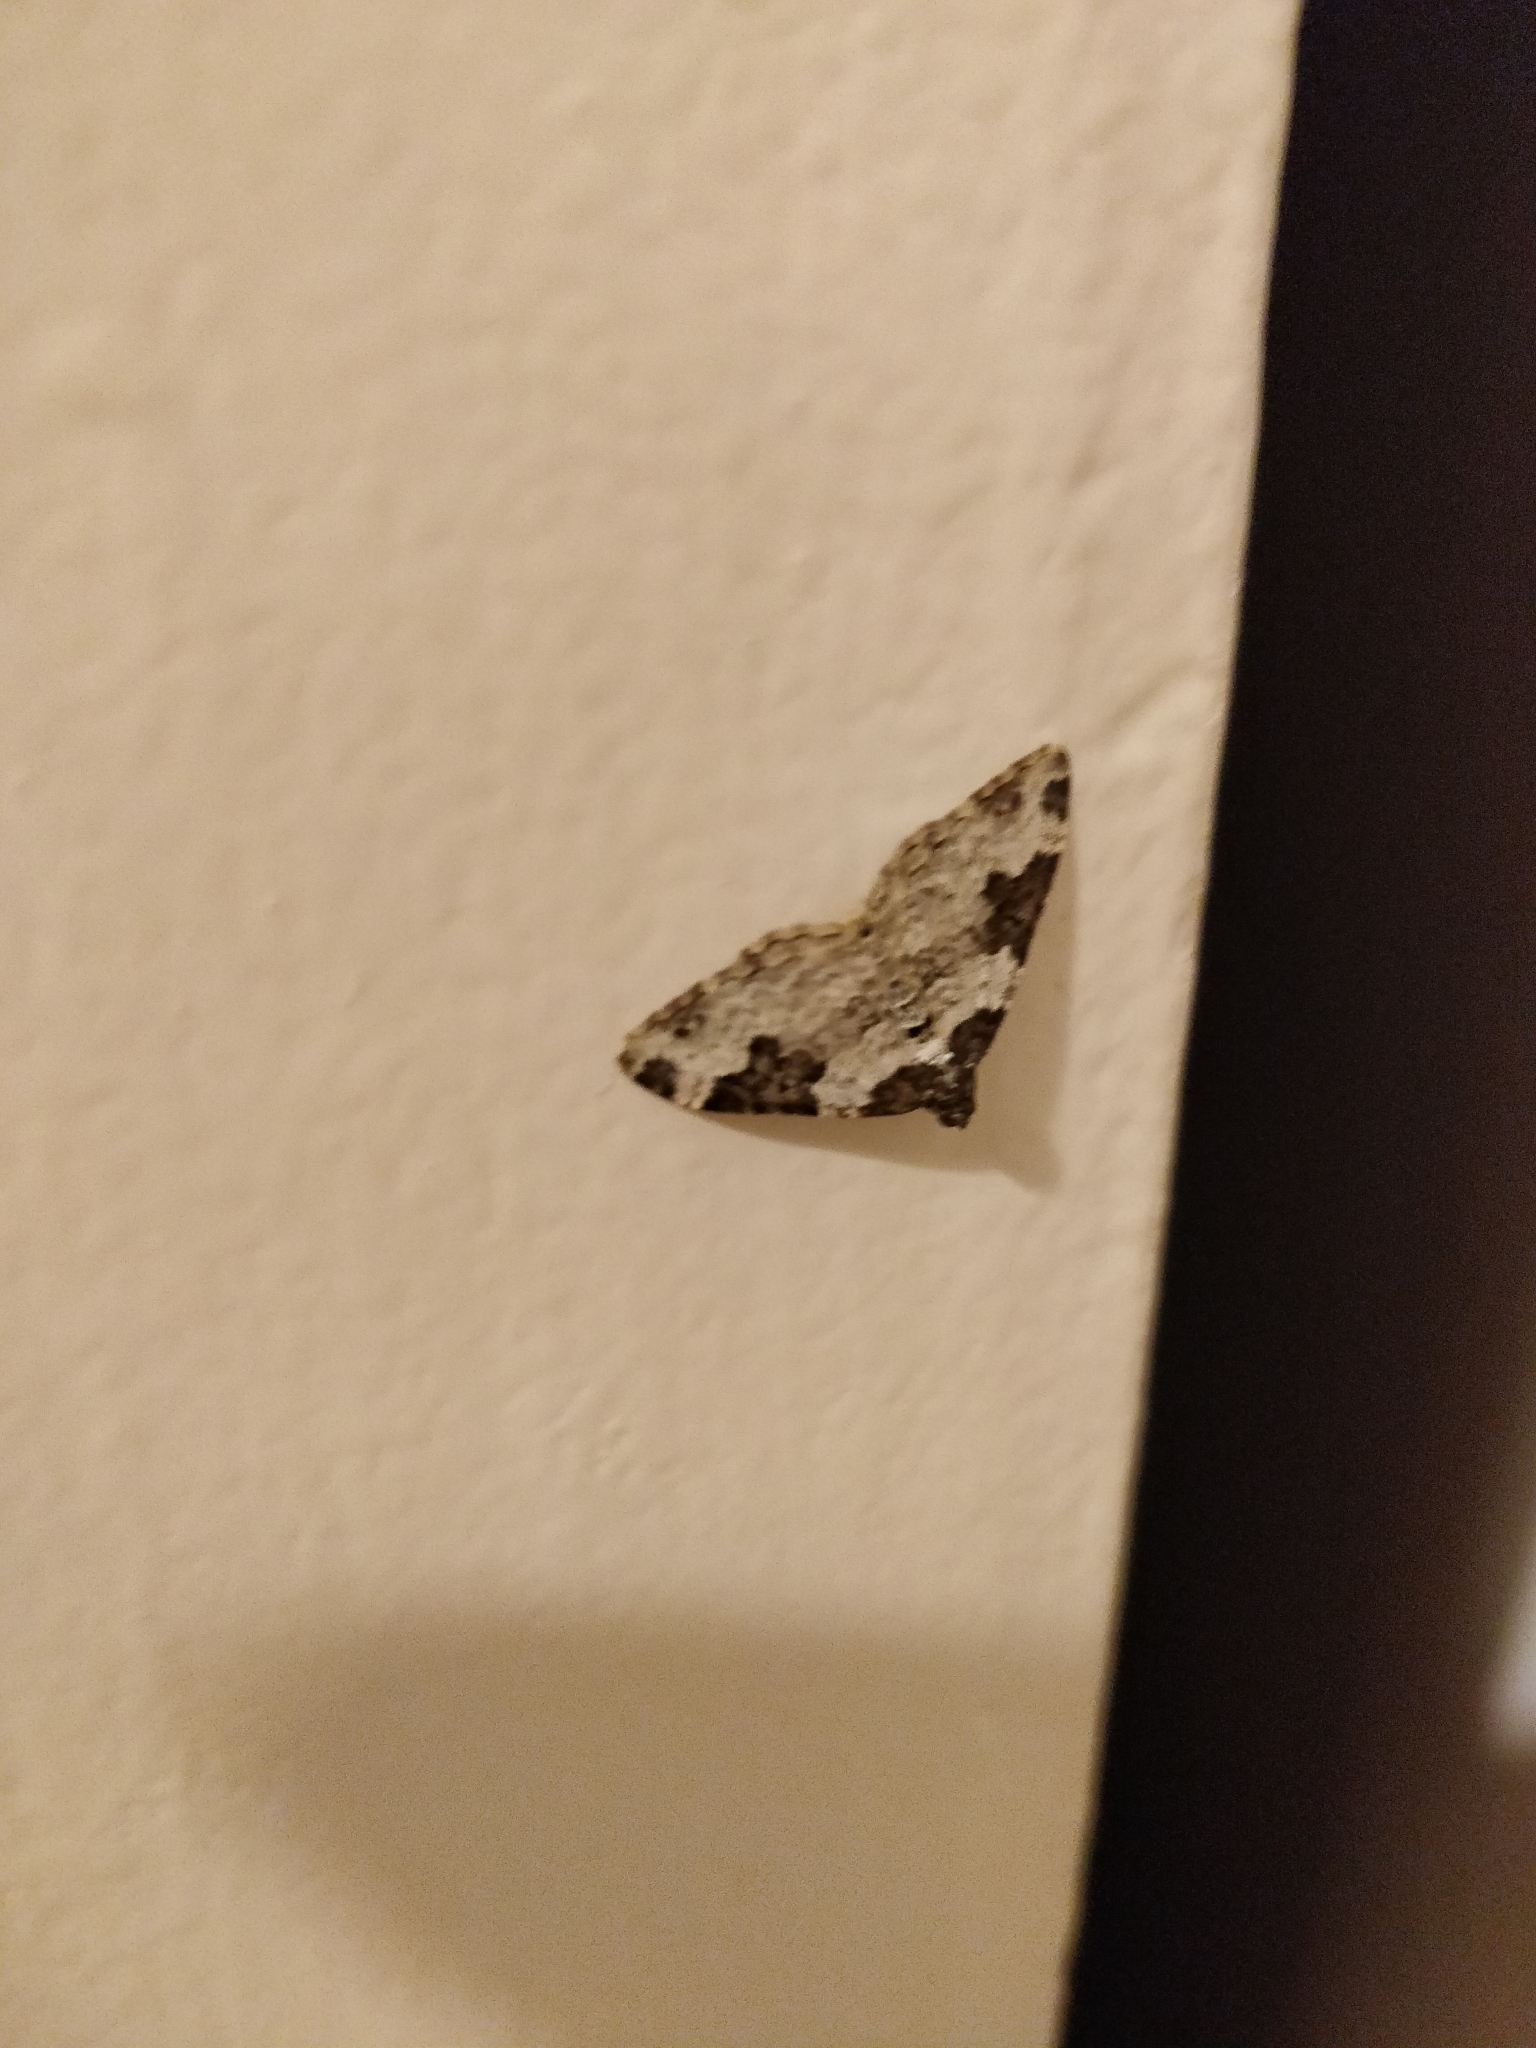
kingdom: Animalia
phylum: Arthropoda
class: Insecta
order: Lepidoptera
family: Geometridae
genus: Xanthorhoe
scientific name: Xanthorhoe fluctuata
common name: Garden carpet
